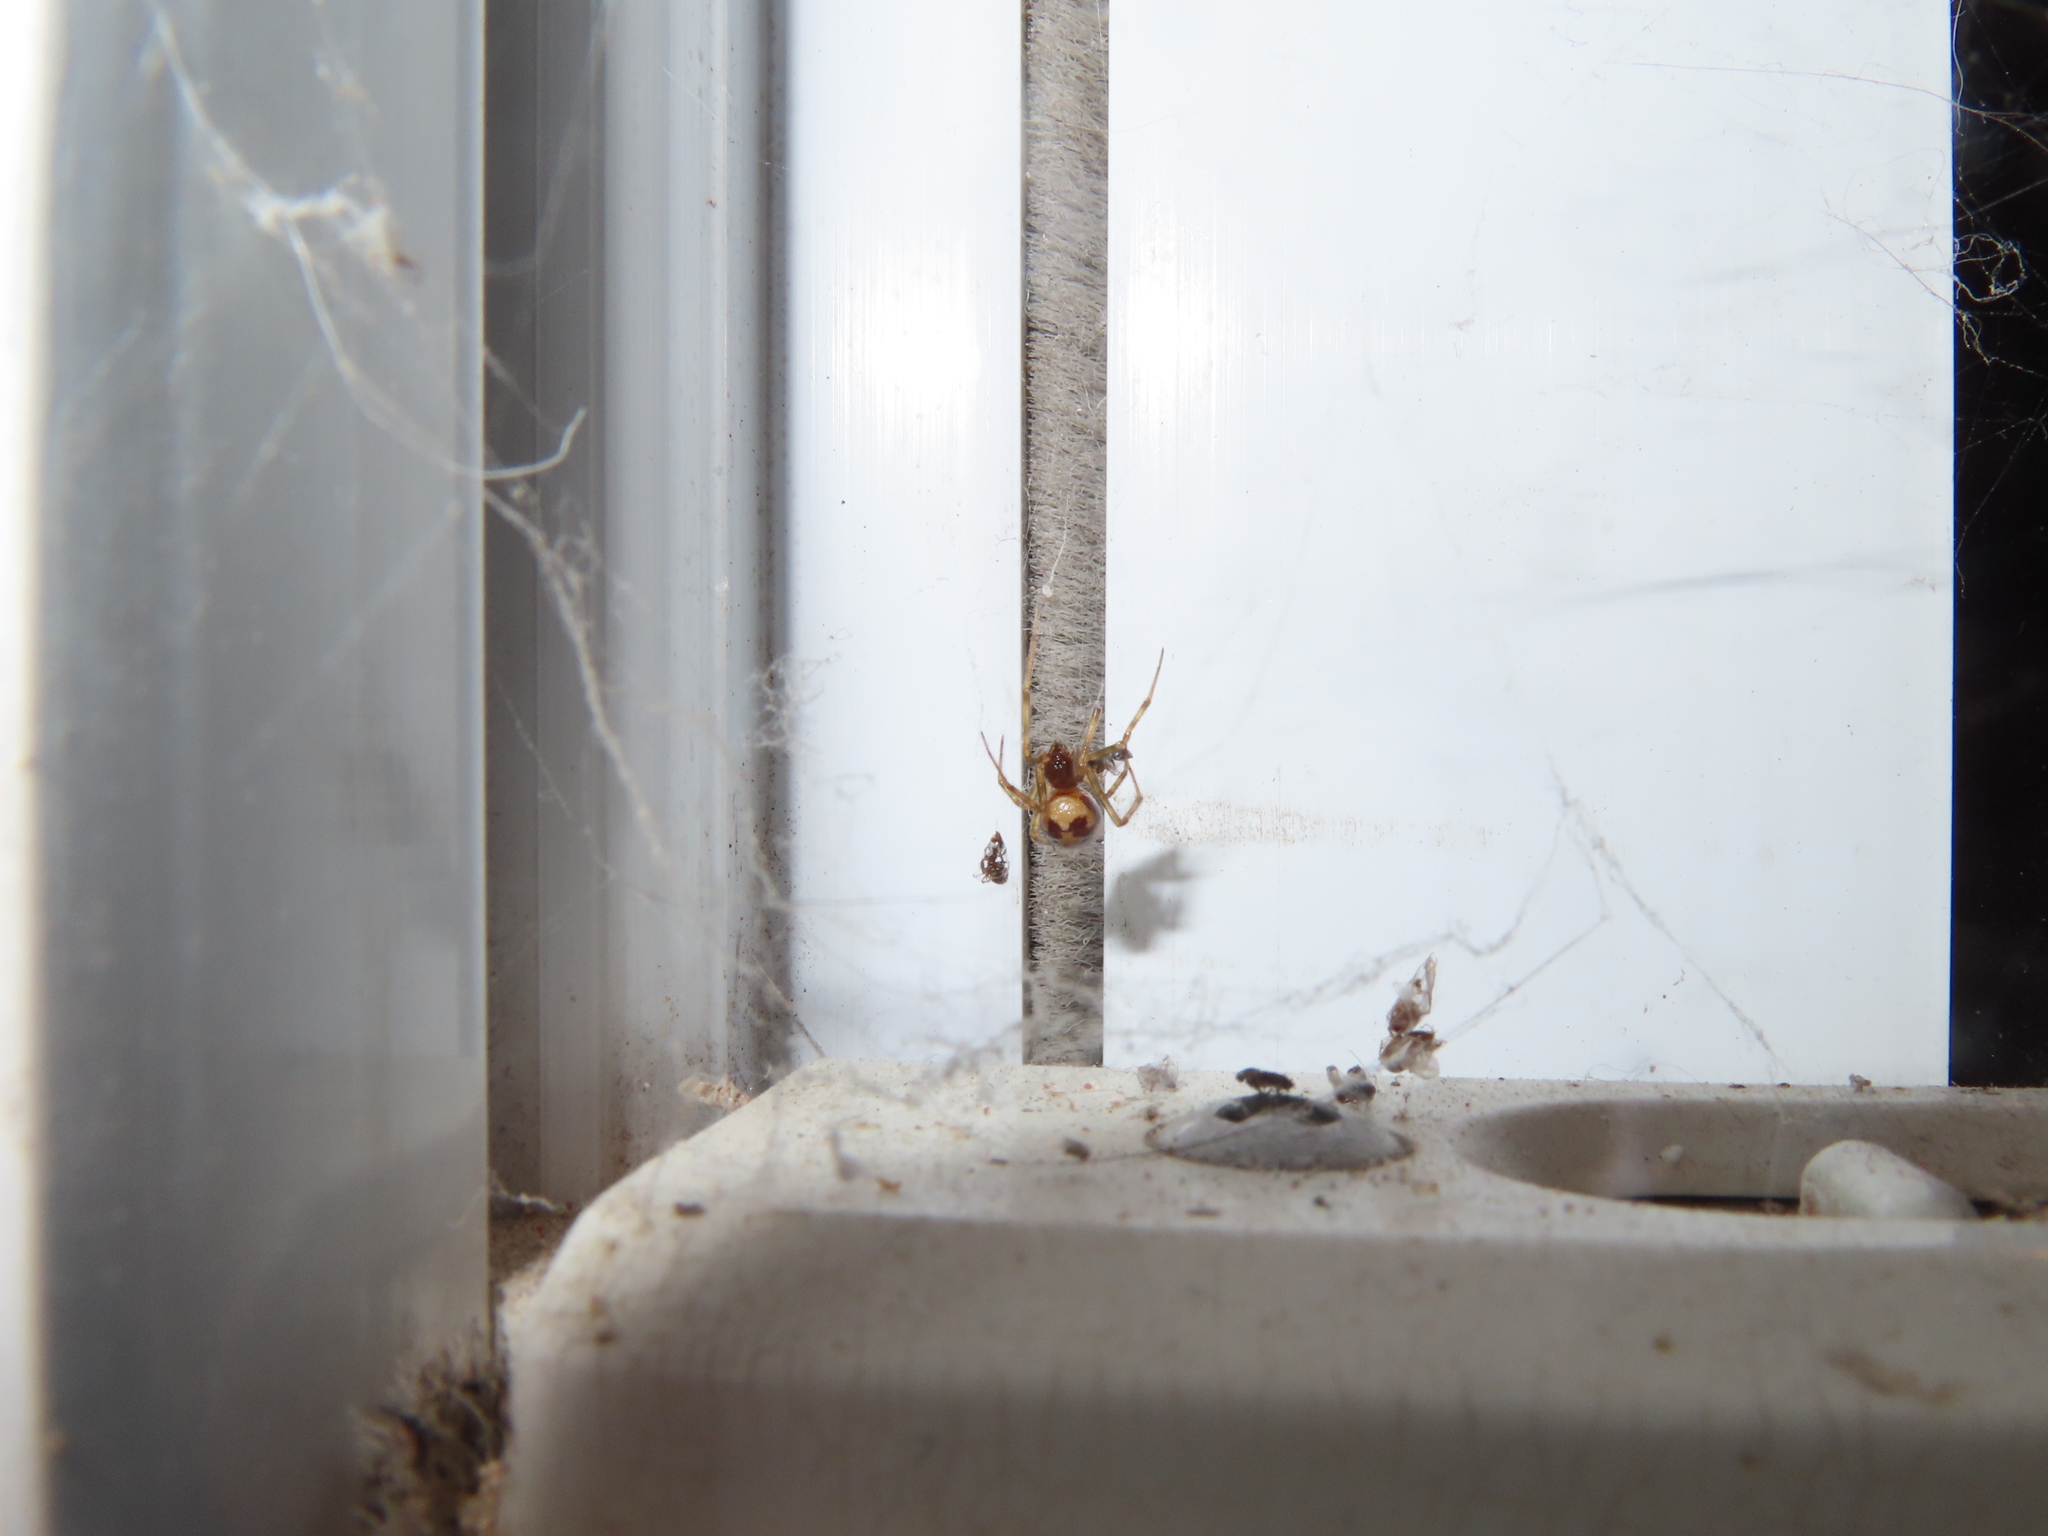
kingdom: Animalia
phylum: Arthropoda
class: Arachnida
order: Araneae
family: Theridiidae
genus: Steatoda
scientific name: Steatoda triangulosa
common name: Triangulate bud spider
